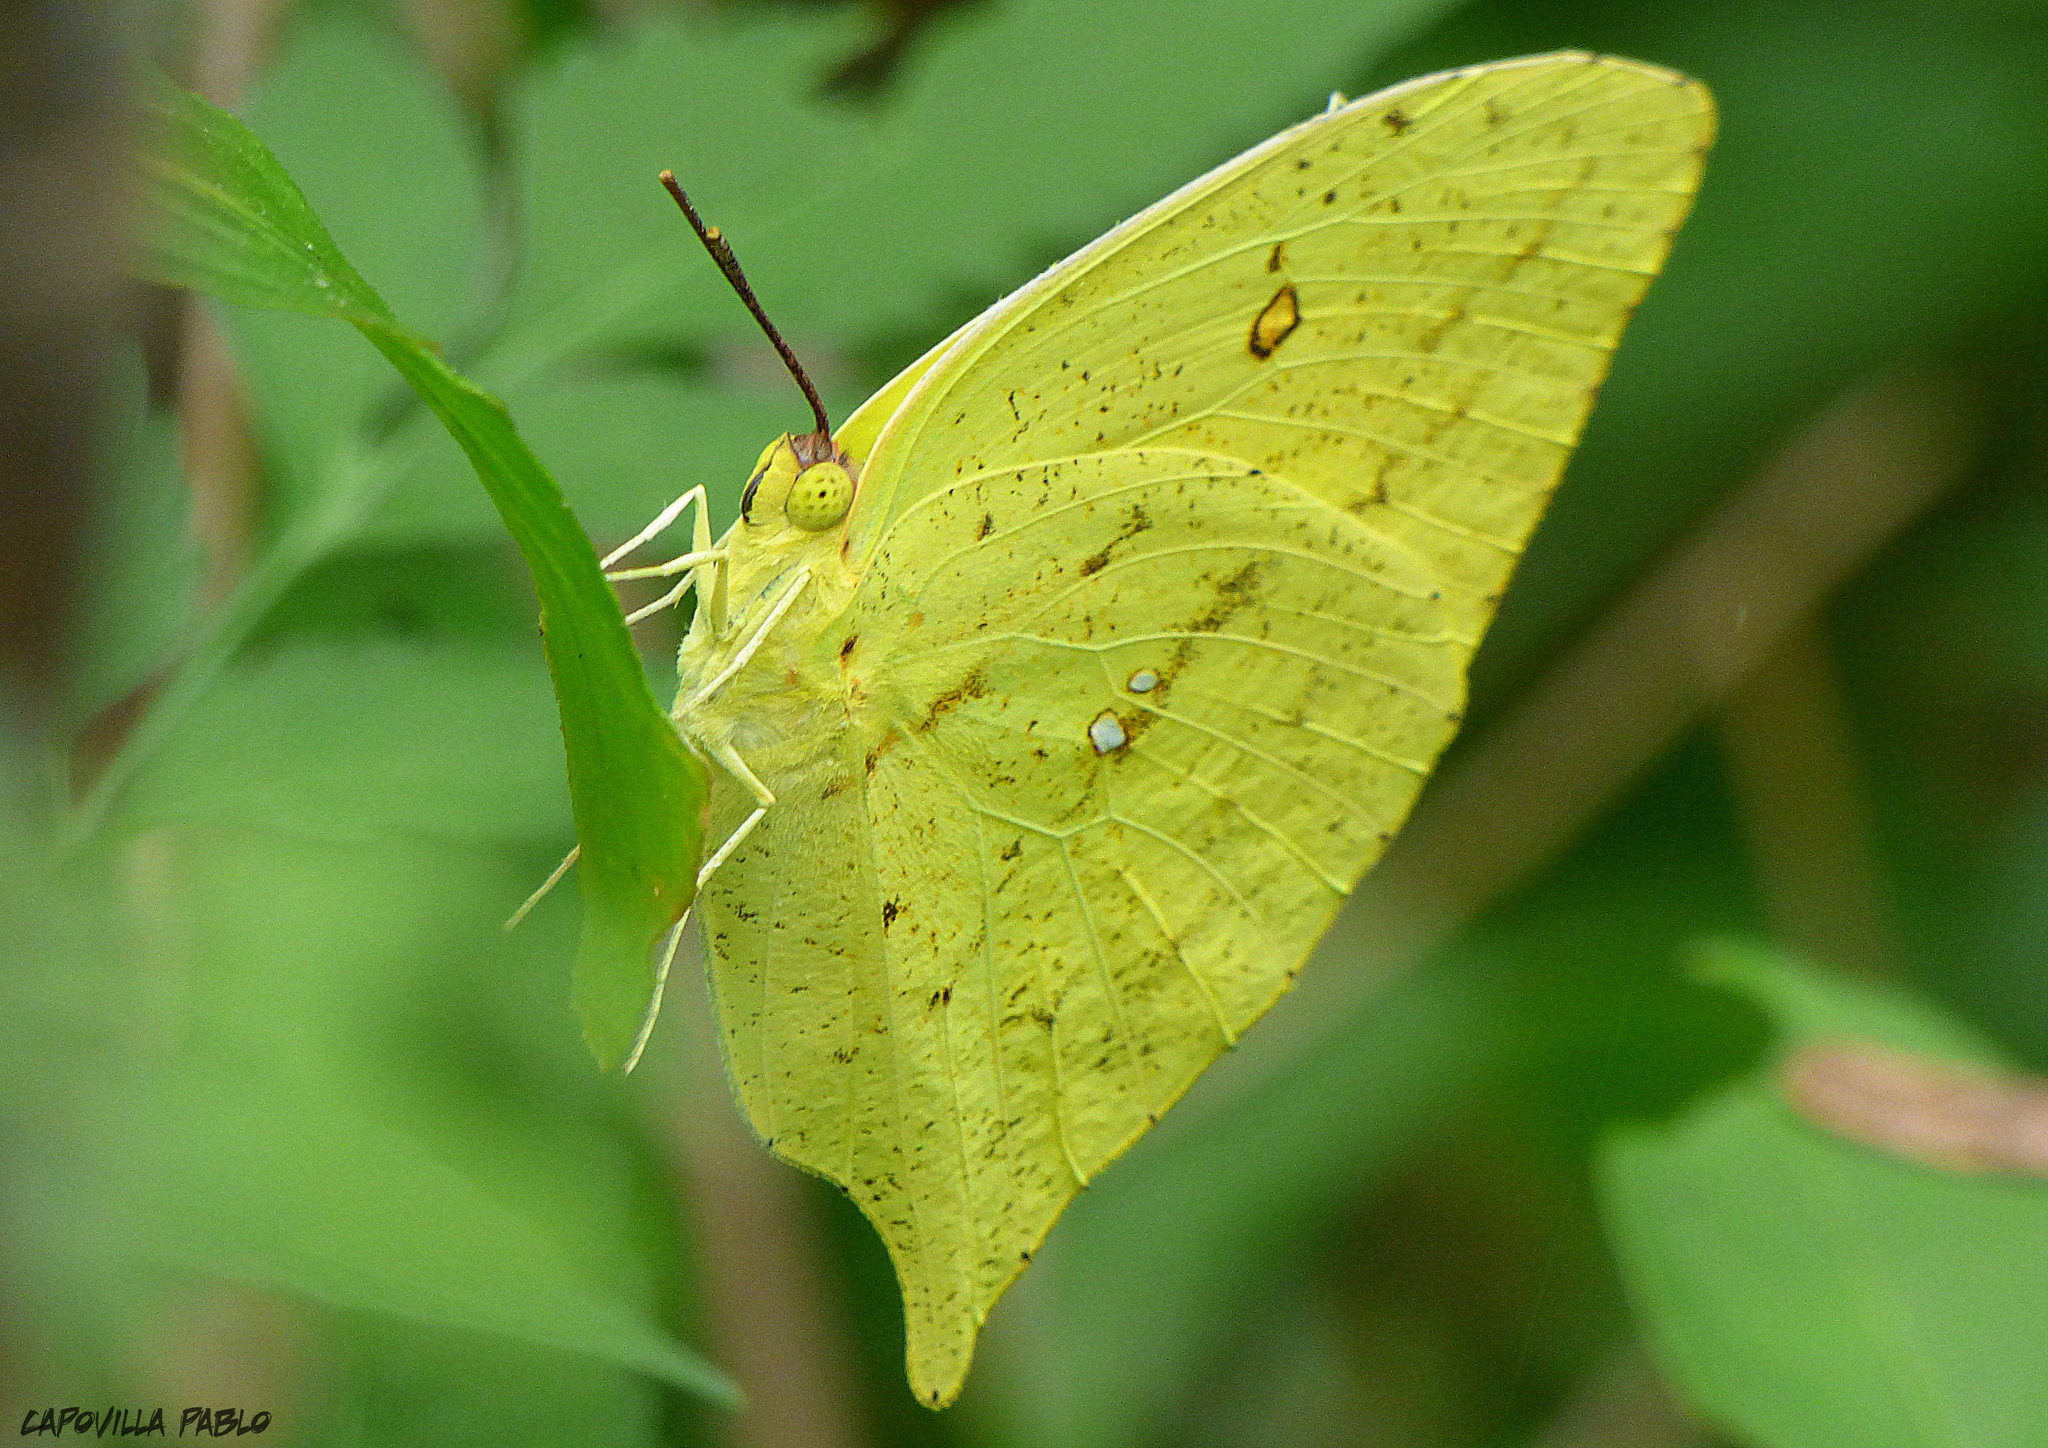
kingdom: Animalia
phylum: Arthropoda
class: Insecta
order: Lepidoptera
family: Pieridae
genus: Phoebis
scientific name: Phoebis neocypris
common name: Tailed sulphur
